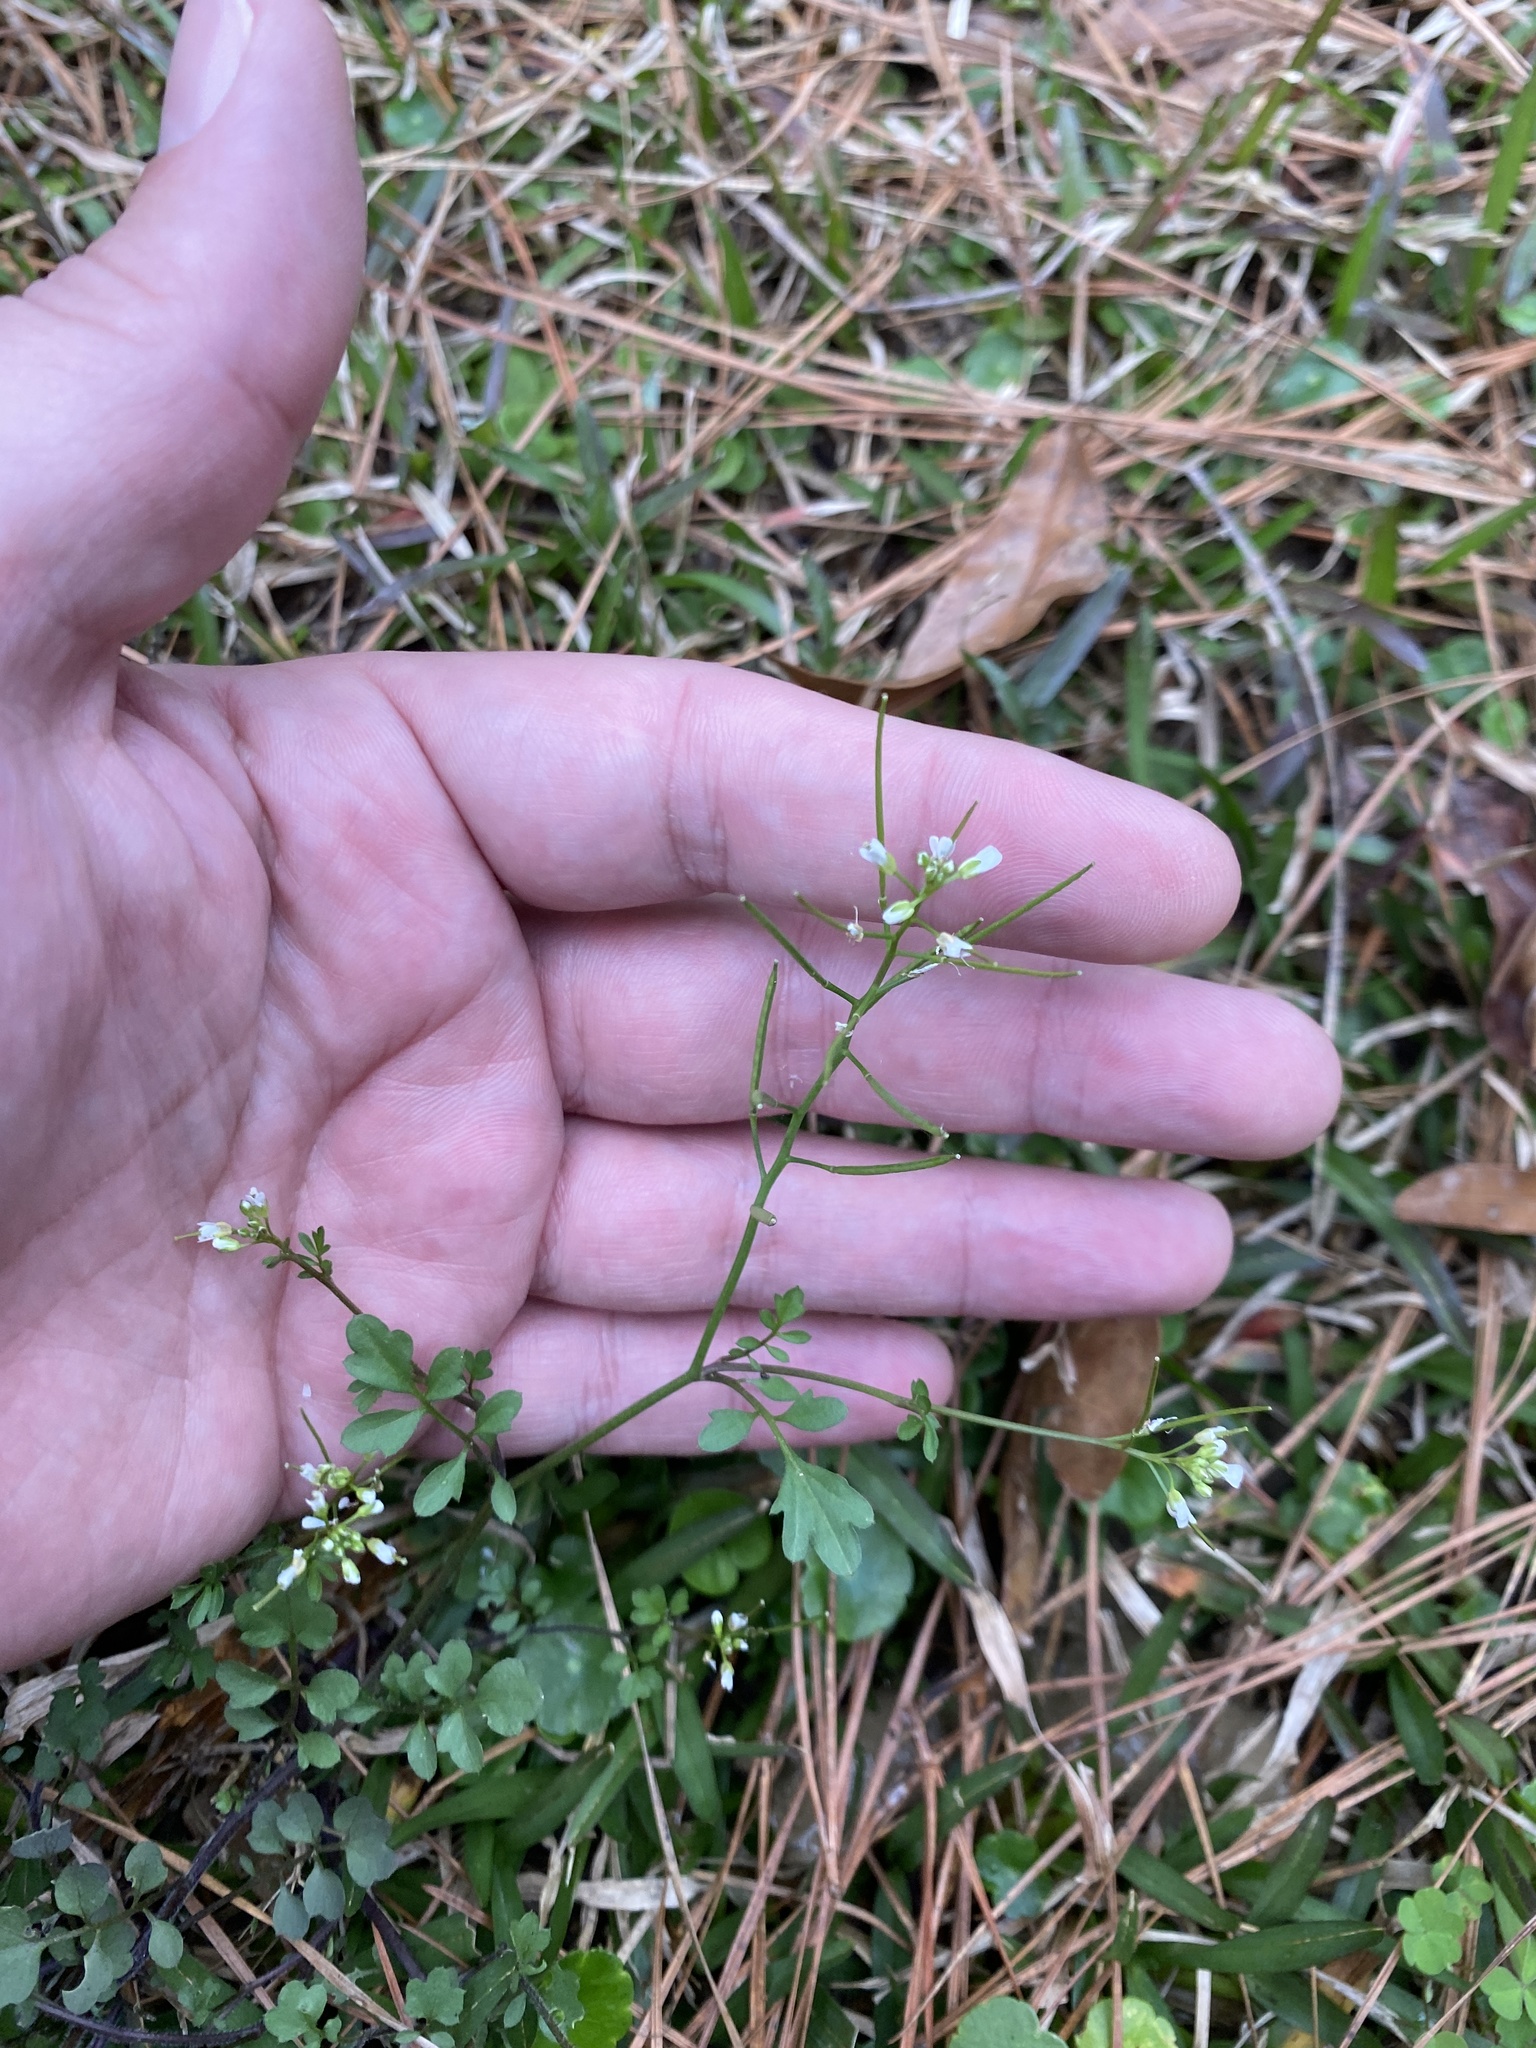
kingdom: Plantae
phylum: Tracheophyta
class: Magnoliopsida
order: Brassicales
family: Brassicaceae
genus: Cardamine
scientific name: Cardamine occulta
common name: Asian wavy bittercress
